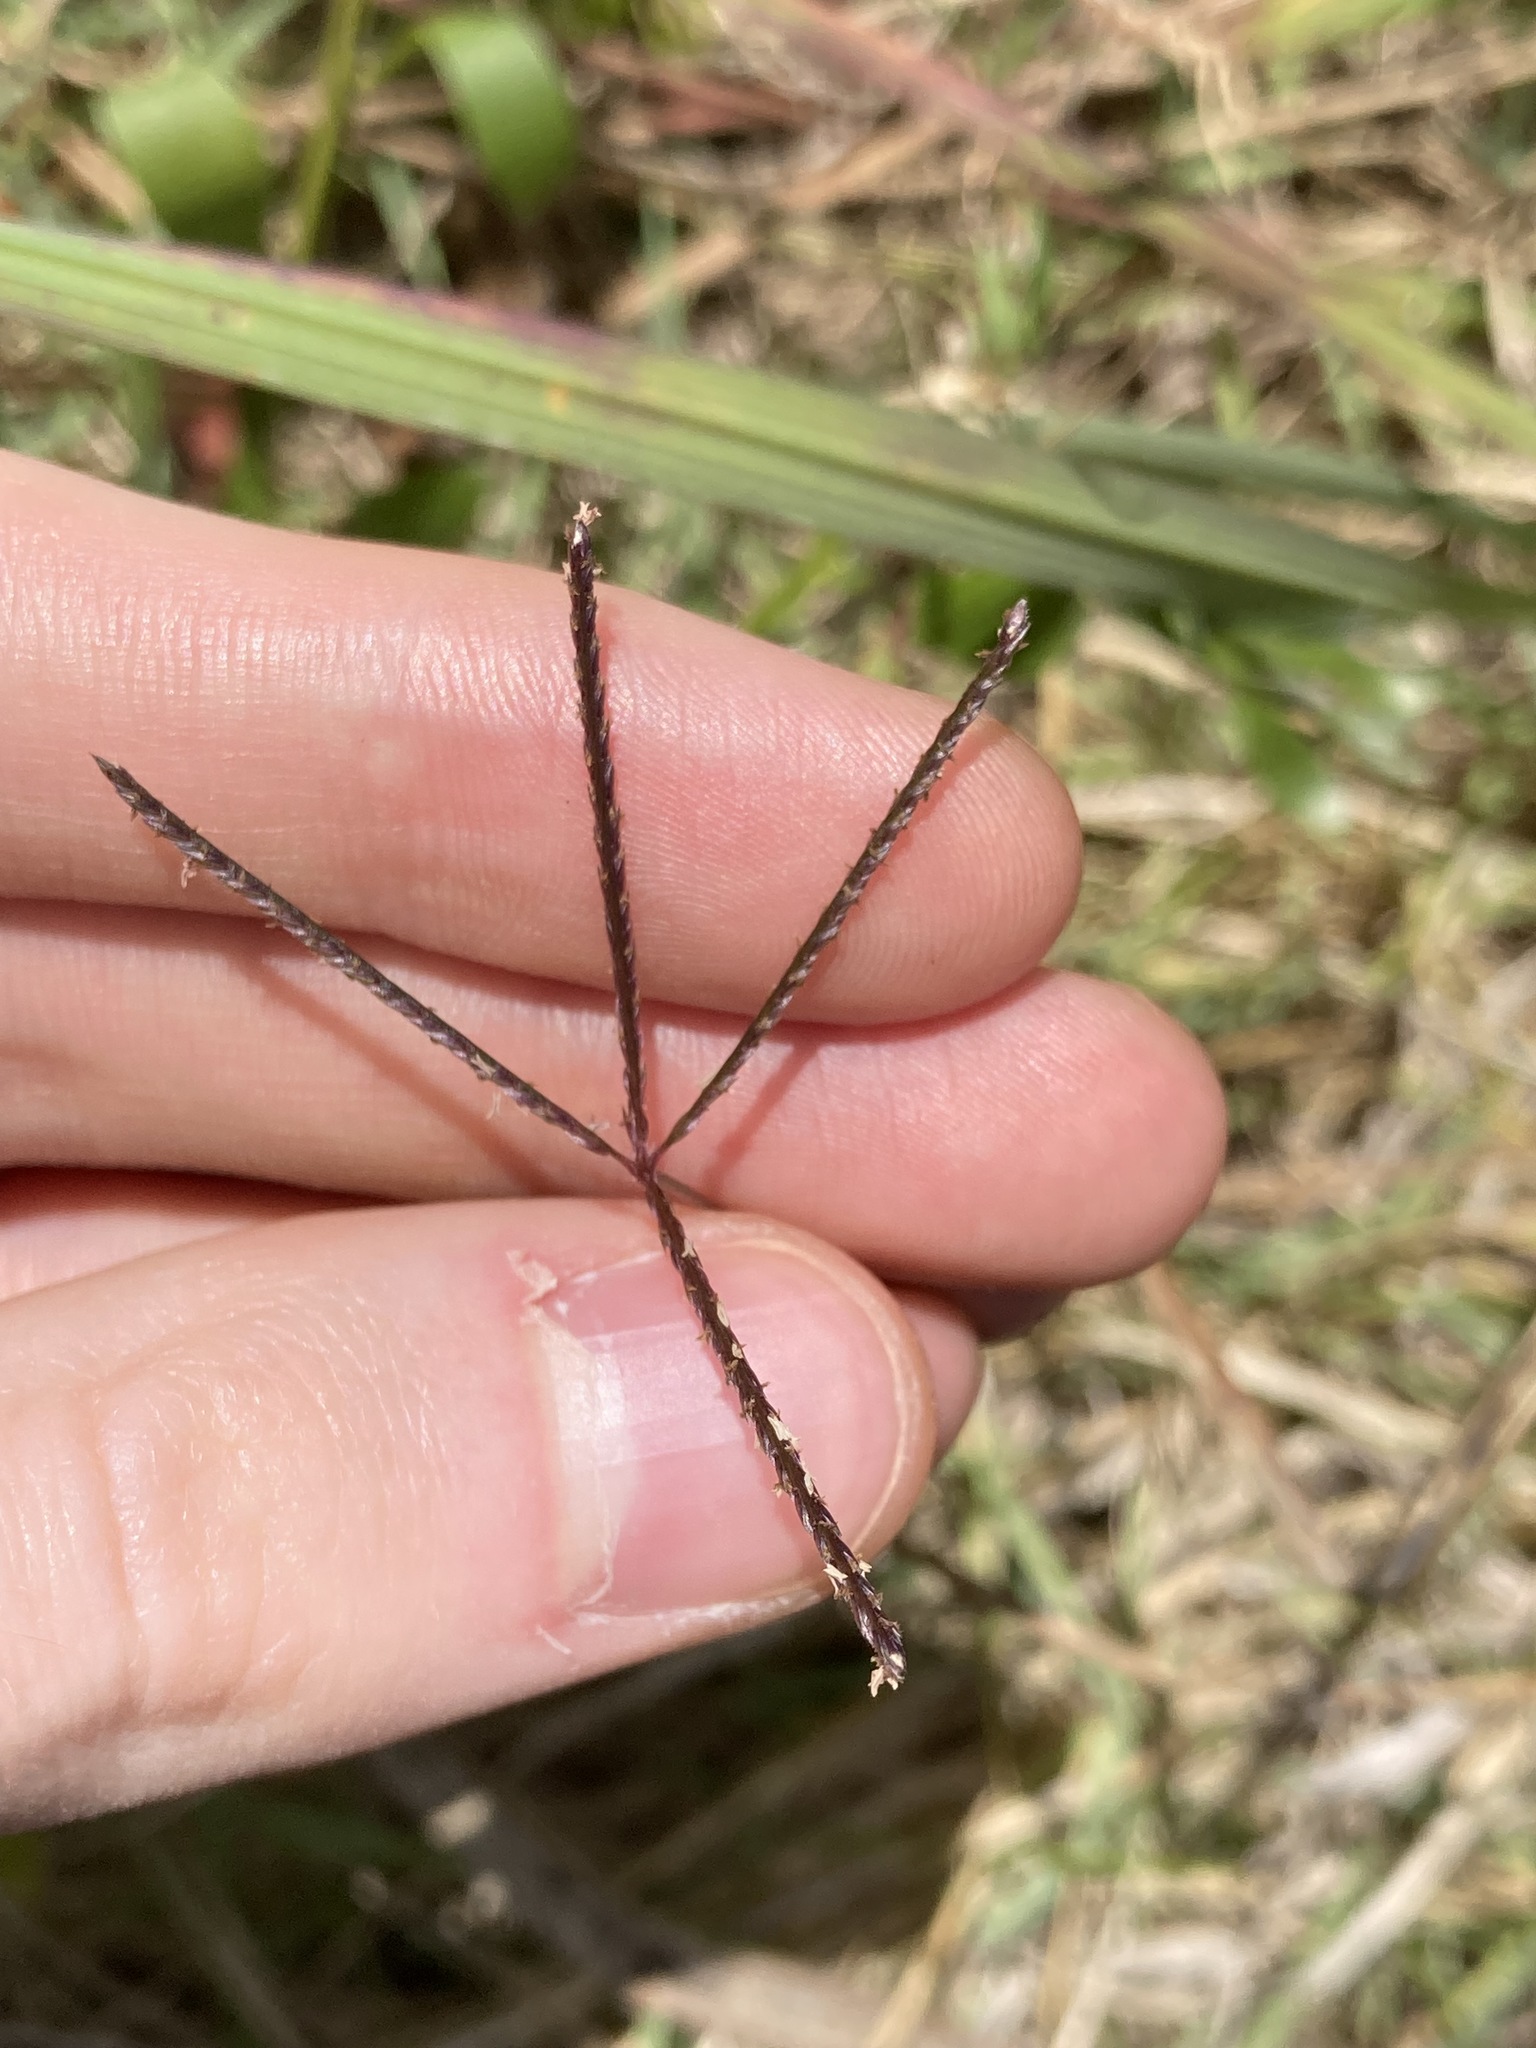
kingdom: Plantae
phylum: Tracheophyta
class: Liliopsida
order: Poales
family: Poaceae
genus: Cynodon
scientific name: Cynodon dactylon
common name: Bermuda grass
